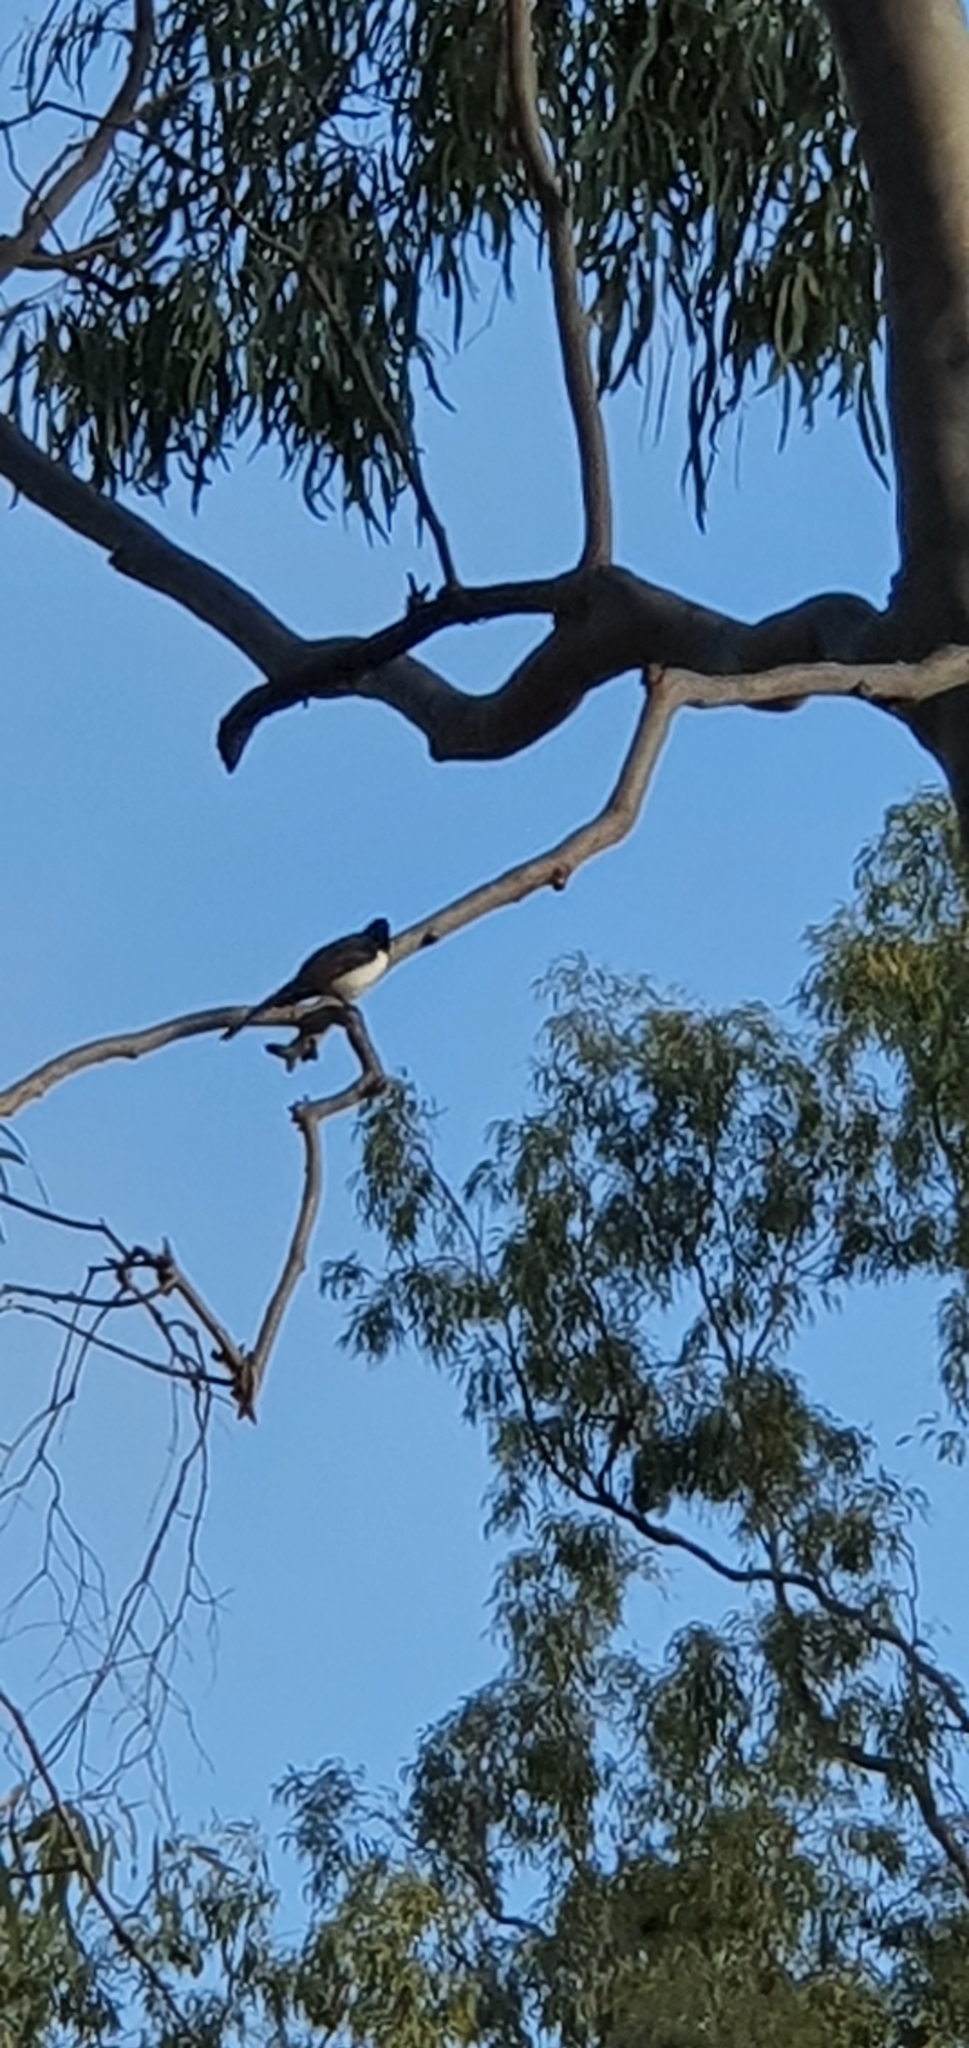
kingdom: Animalia
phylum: Chordata
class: Aves
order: Passeriformes
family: Rhipiduridae
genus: Rhipidura
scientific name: Rhipidura leucophrys
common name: Willie wagtail
